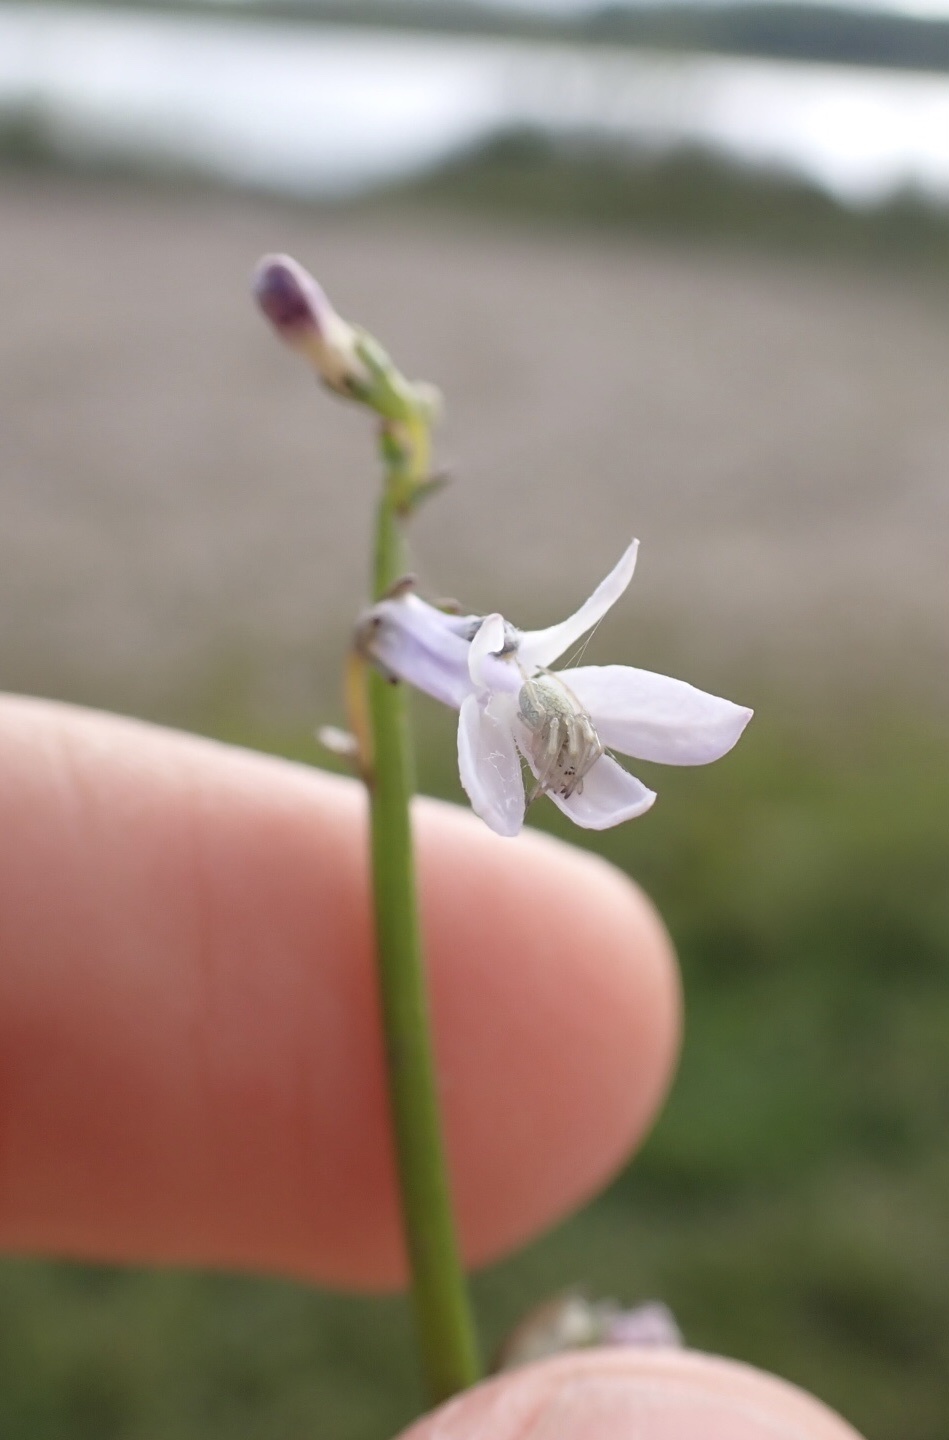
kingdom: Plantae
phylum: Tracheophyta
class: Magnoliopsida
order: Asterales
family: Campanulaceae
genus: Lobelia
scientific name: Lobelia dortmanna
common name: Water lobelia
